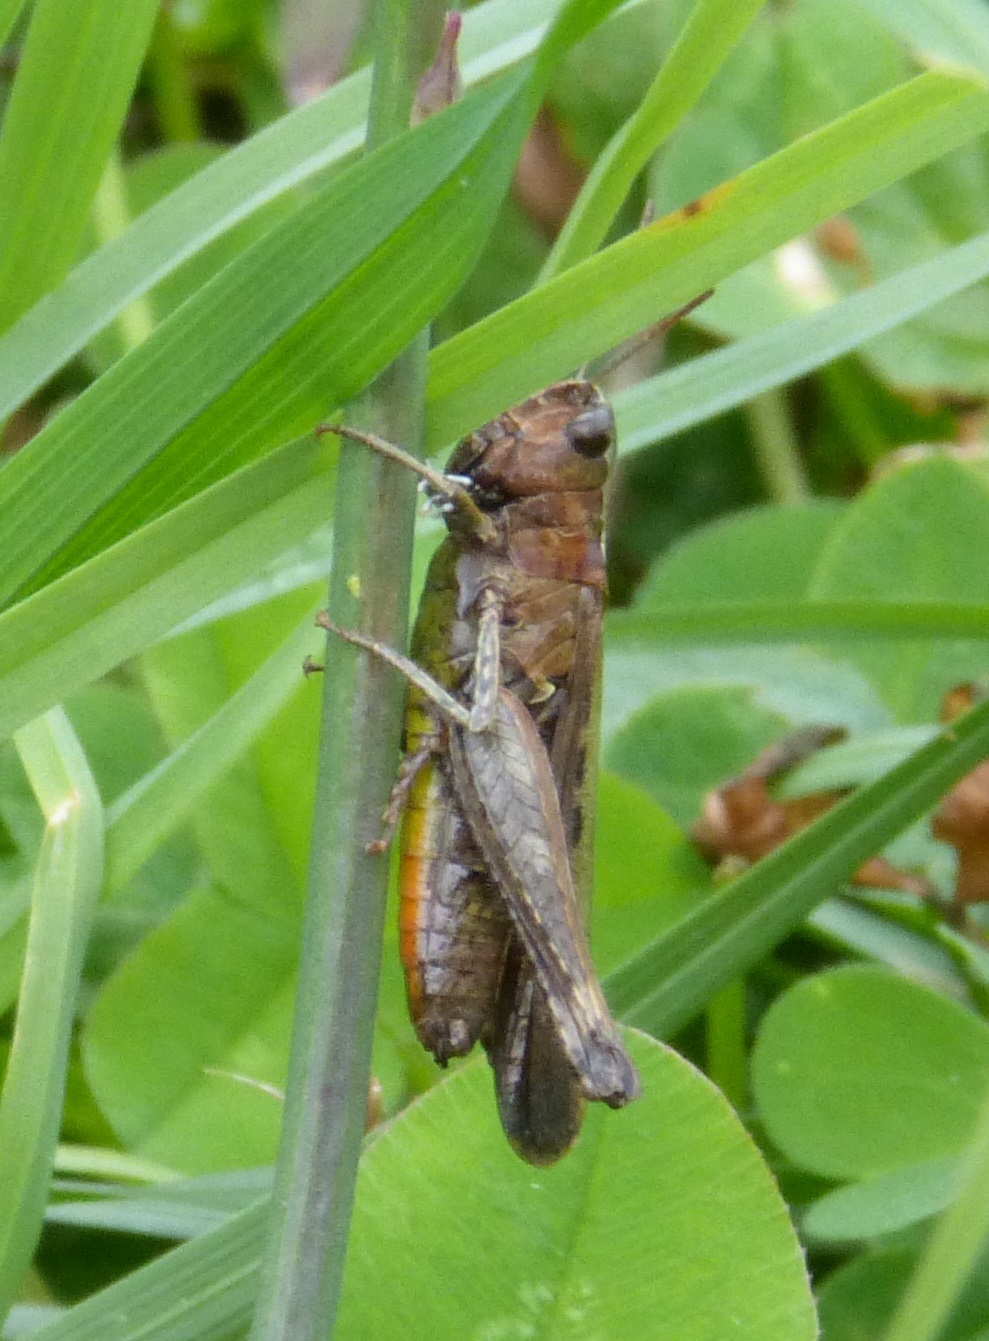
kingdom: Animalia
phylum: Arthropoda
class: Insecta
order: Orthoptera
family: Acrididae
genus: Omocestus
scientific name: Omocestus rufipes
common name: Woodland grasshopper
